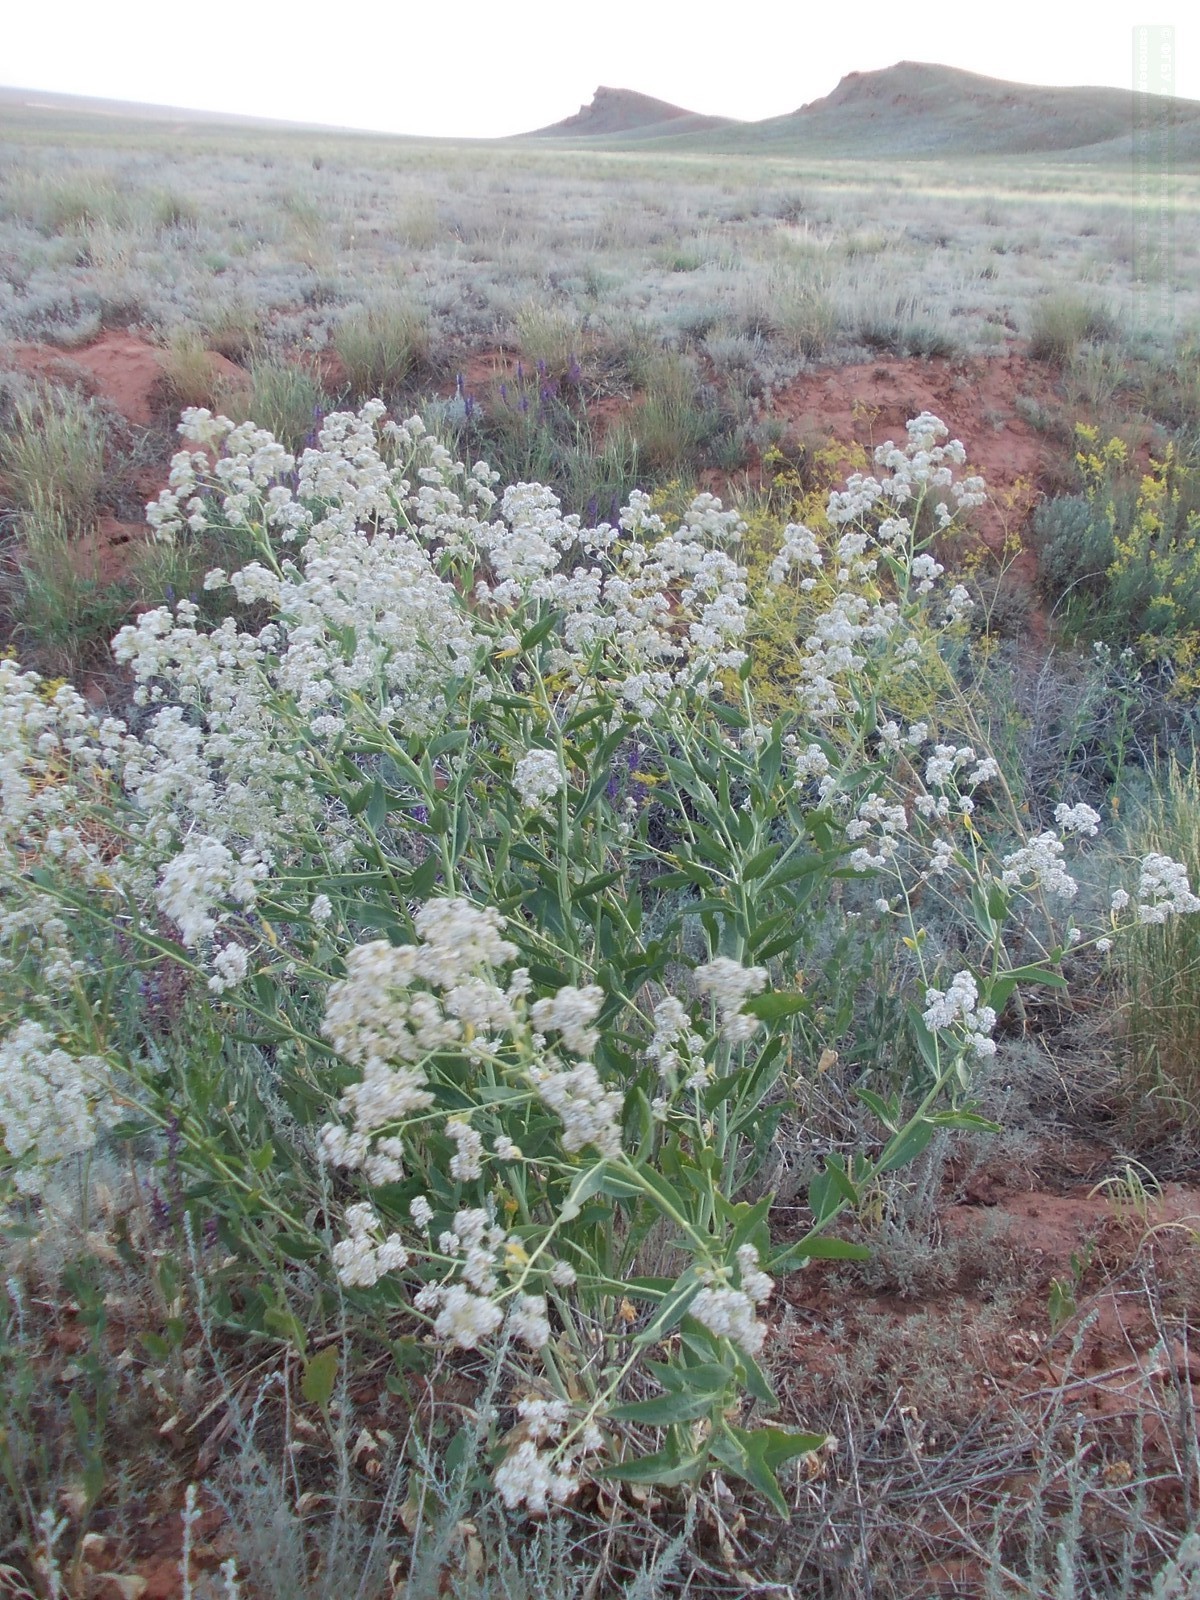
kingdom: Plantae
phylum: Tracheophyta
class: Magnoliopsida
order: Brassicales
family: Brassicaceae
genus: Lepidium
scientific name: Lepidium latifolium
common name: Dittander
